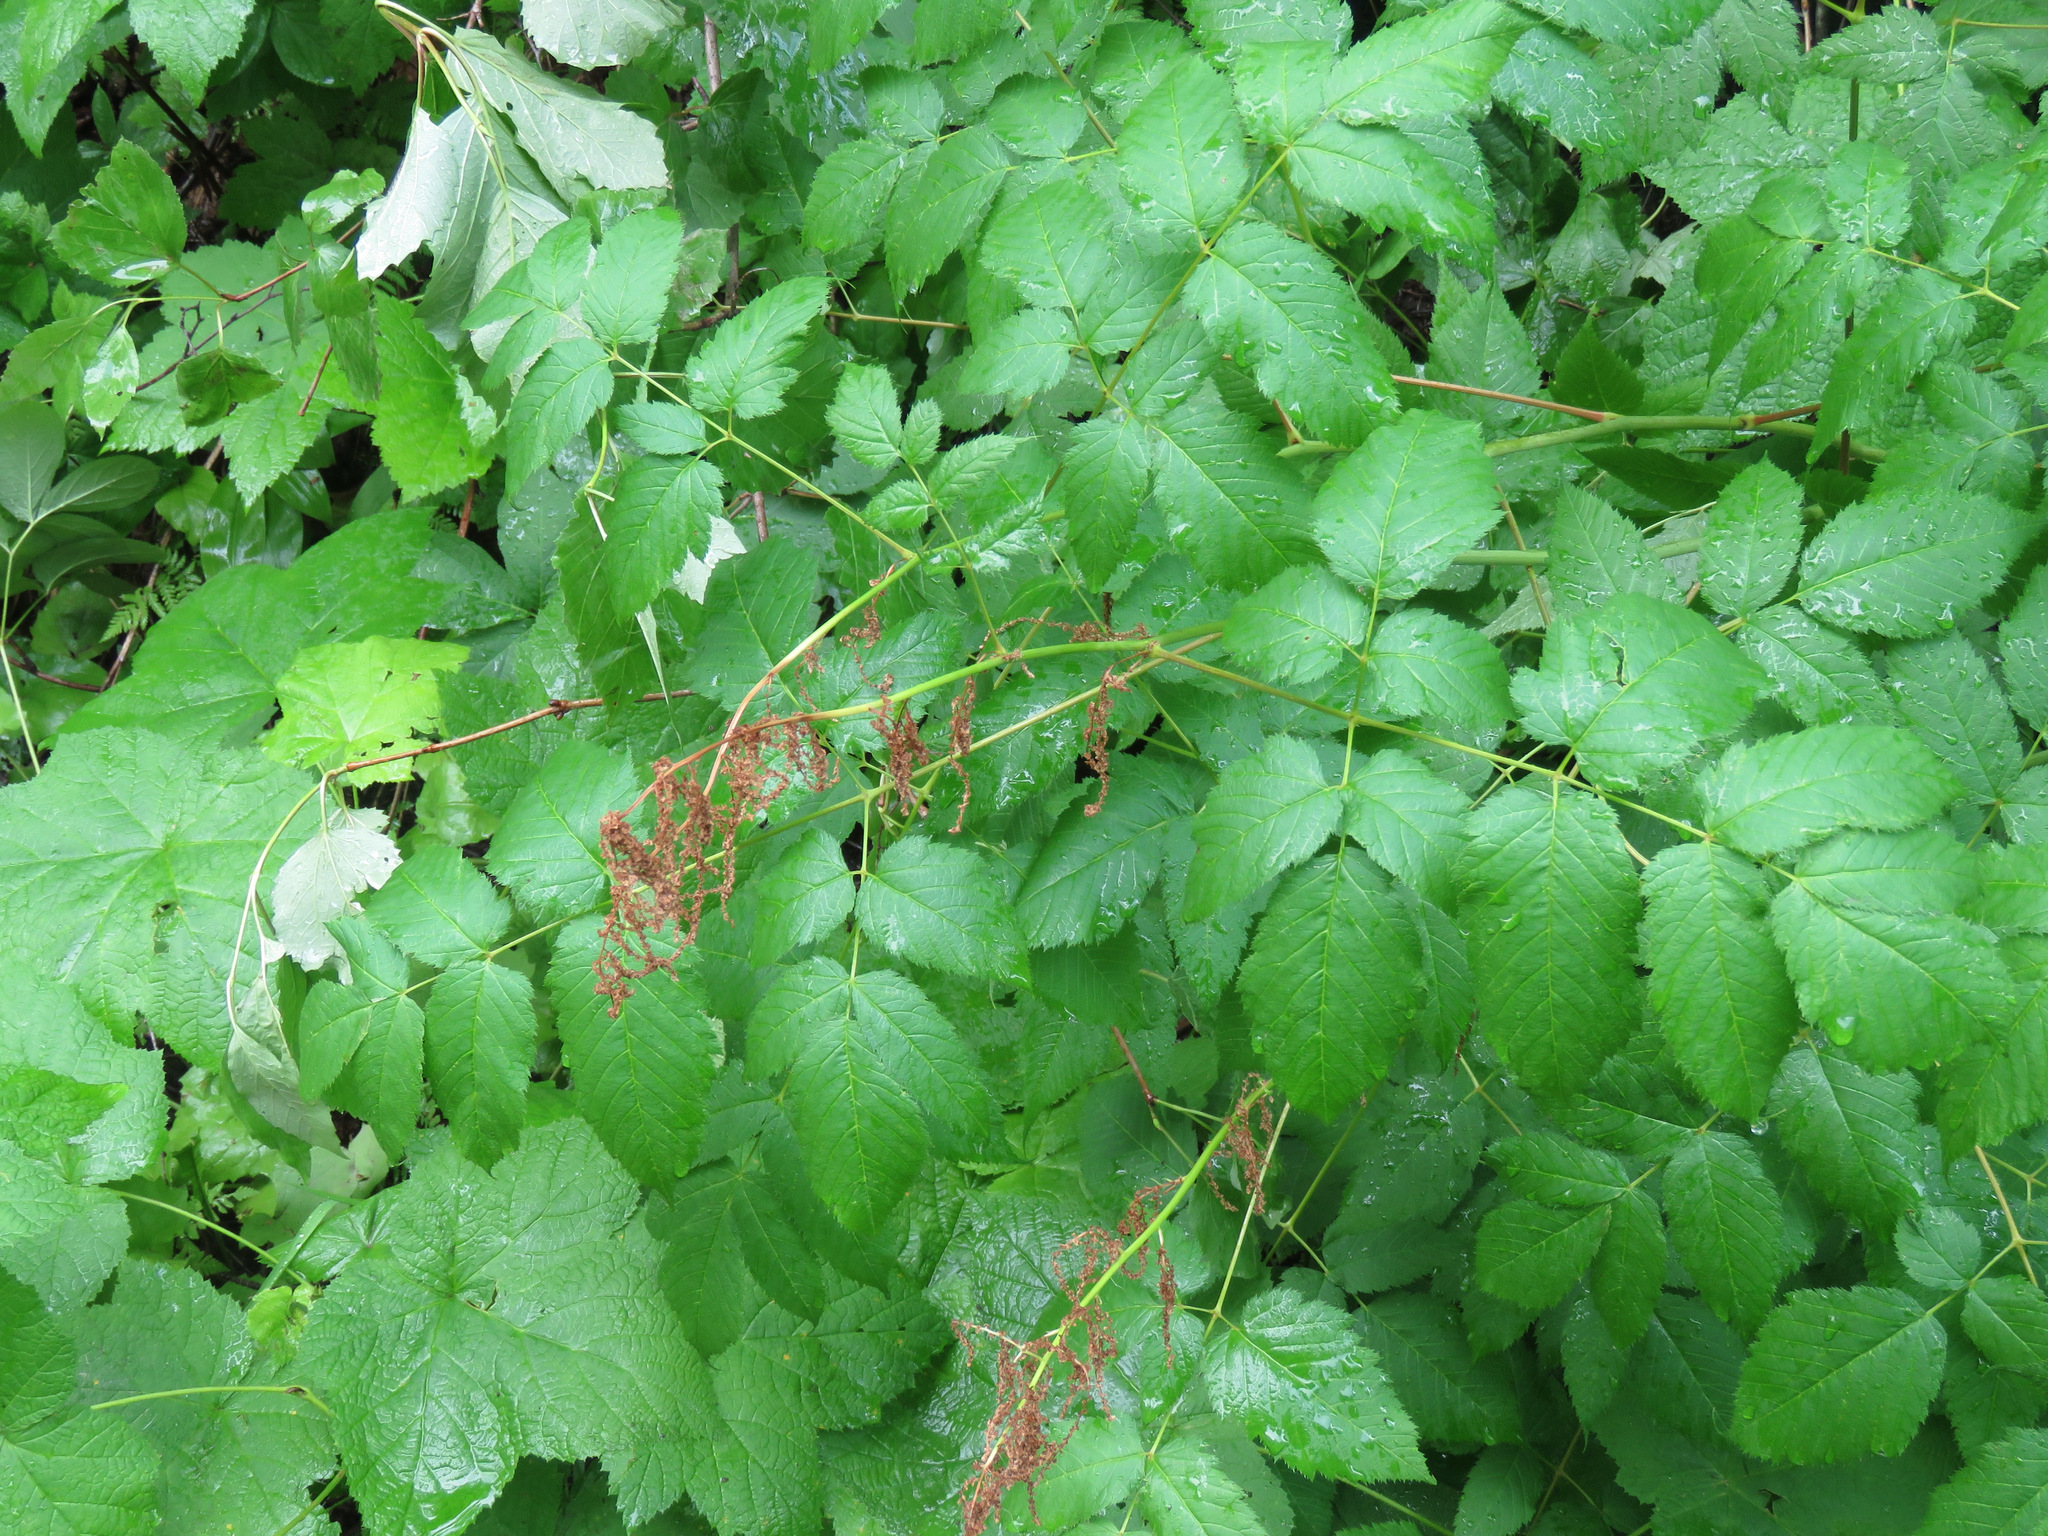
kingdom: Plantae
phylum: Tracheophyta
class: Magnoliopsida
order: Rosales
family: Rosaceae
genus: Aruncus
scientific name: Aruncus dioicus
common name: Buck's-beard
